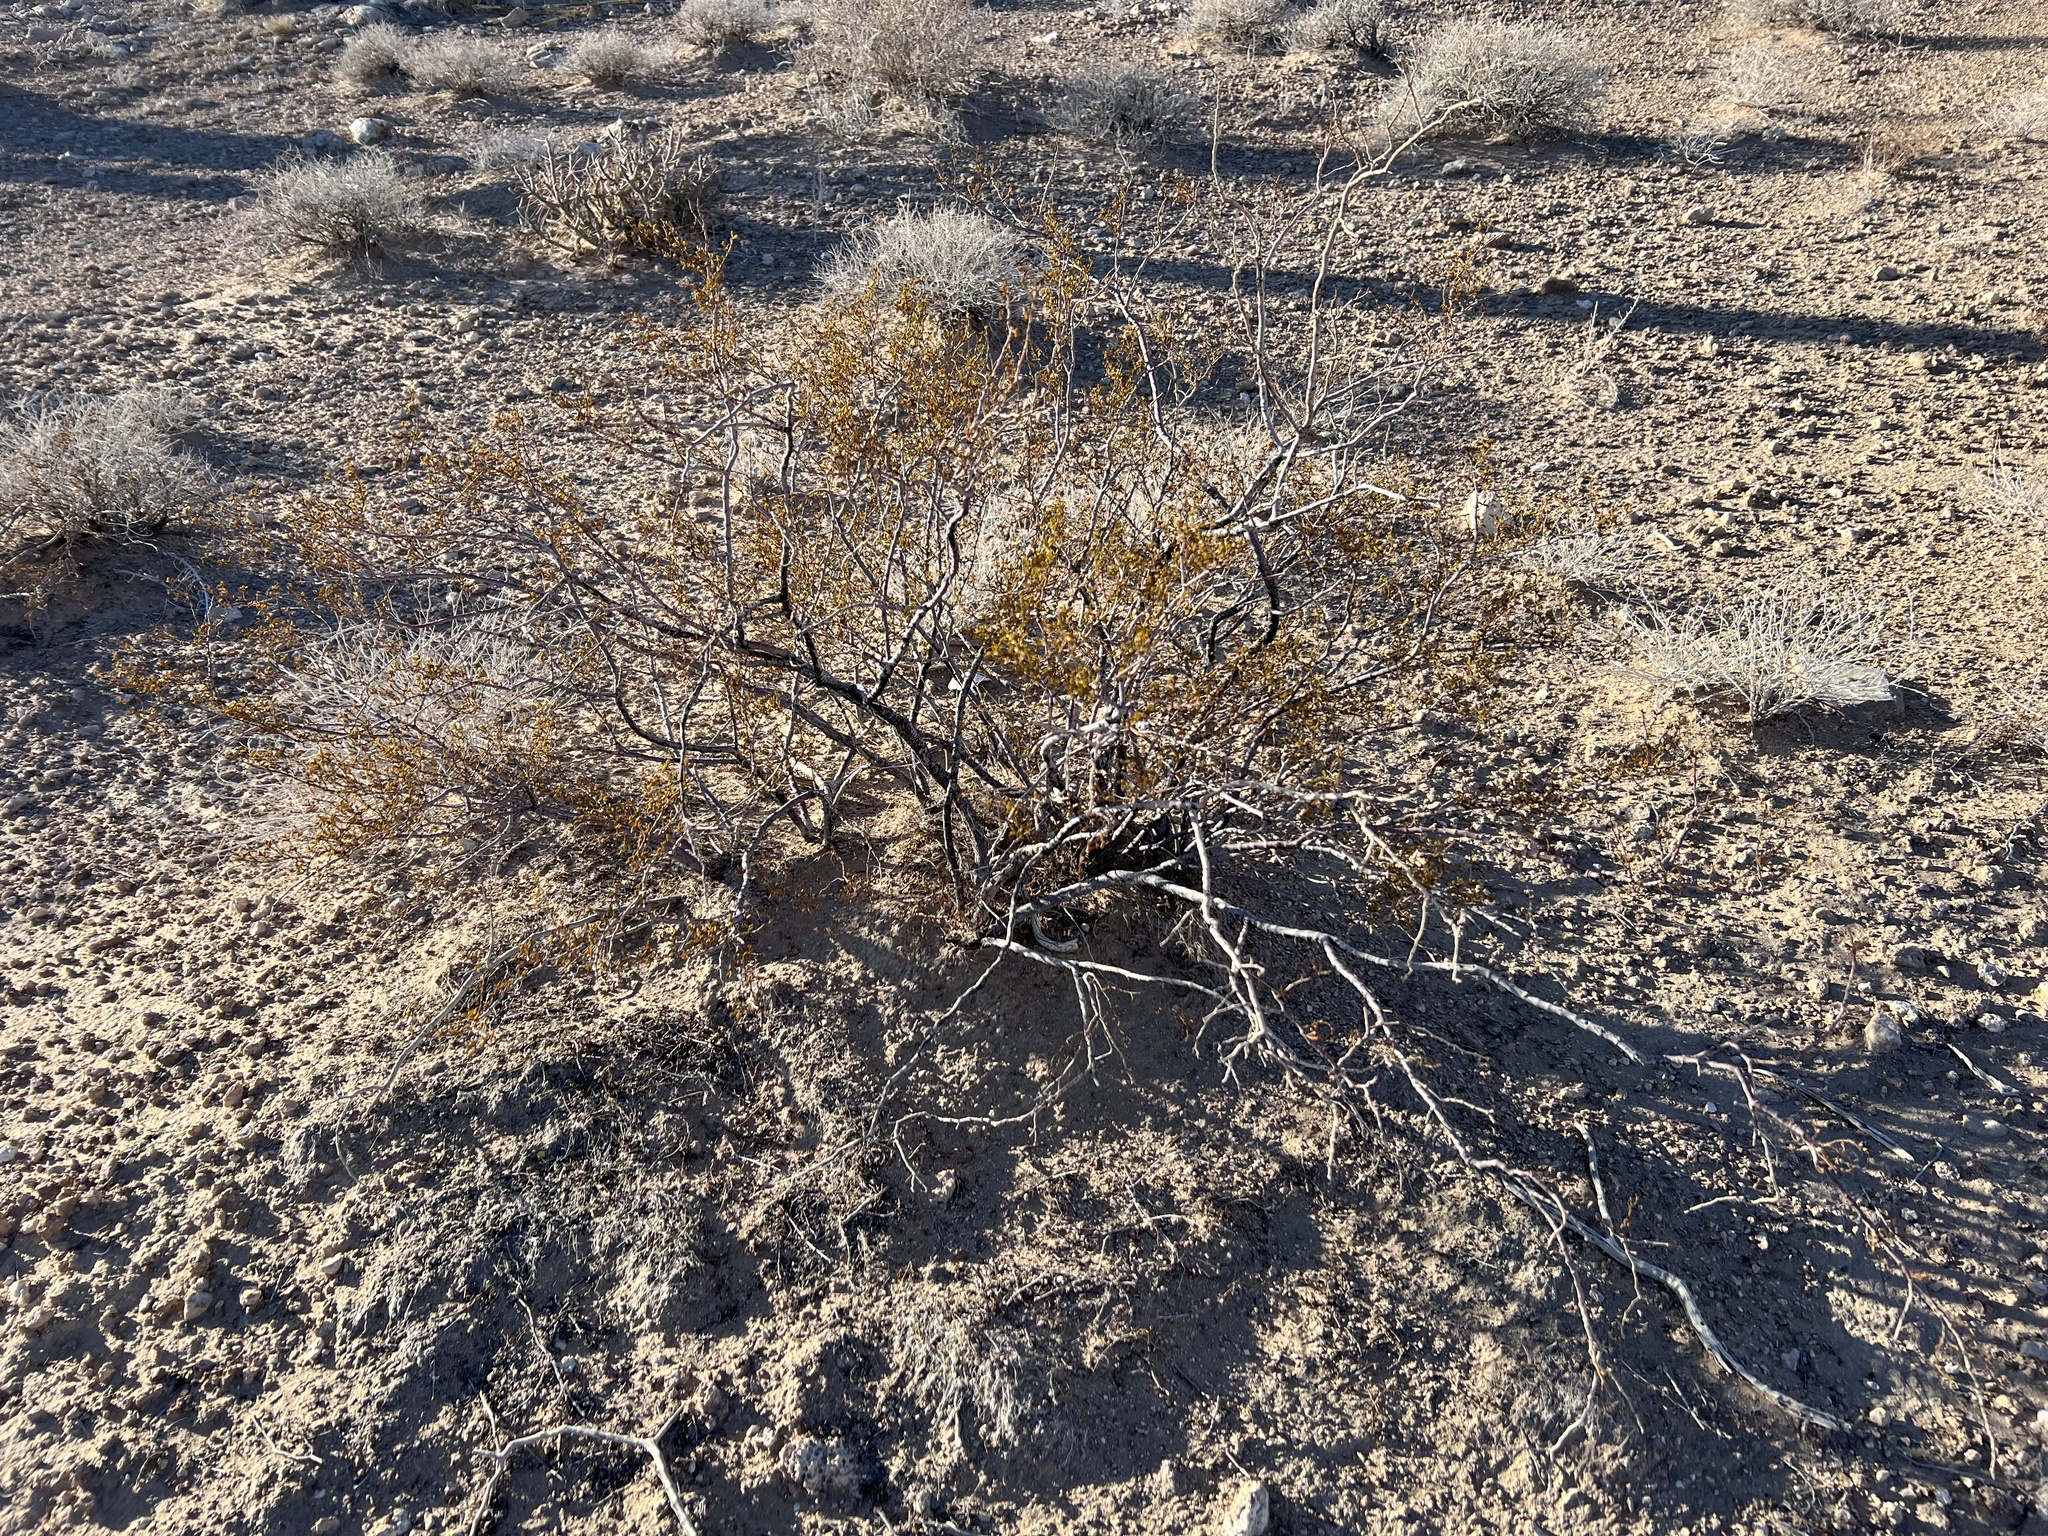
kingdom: Plantae
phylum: Tracheophyta
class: Magnoliopsida
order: Zygophyllales
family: Zygophyllaceae
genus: Larrea
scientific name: Larrea tridentata
